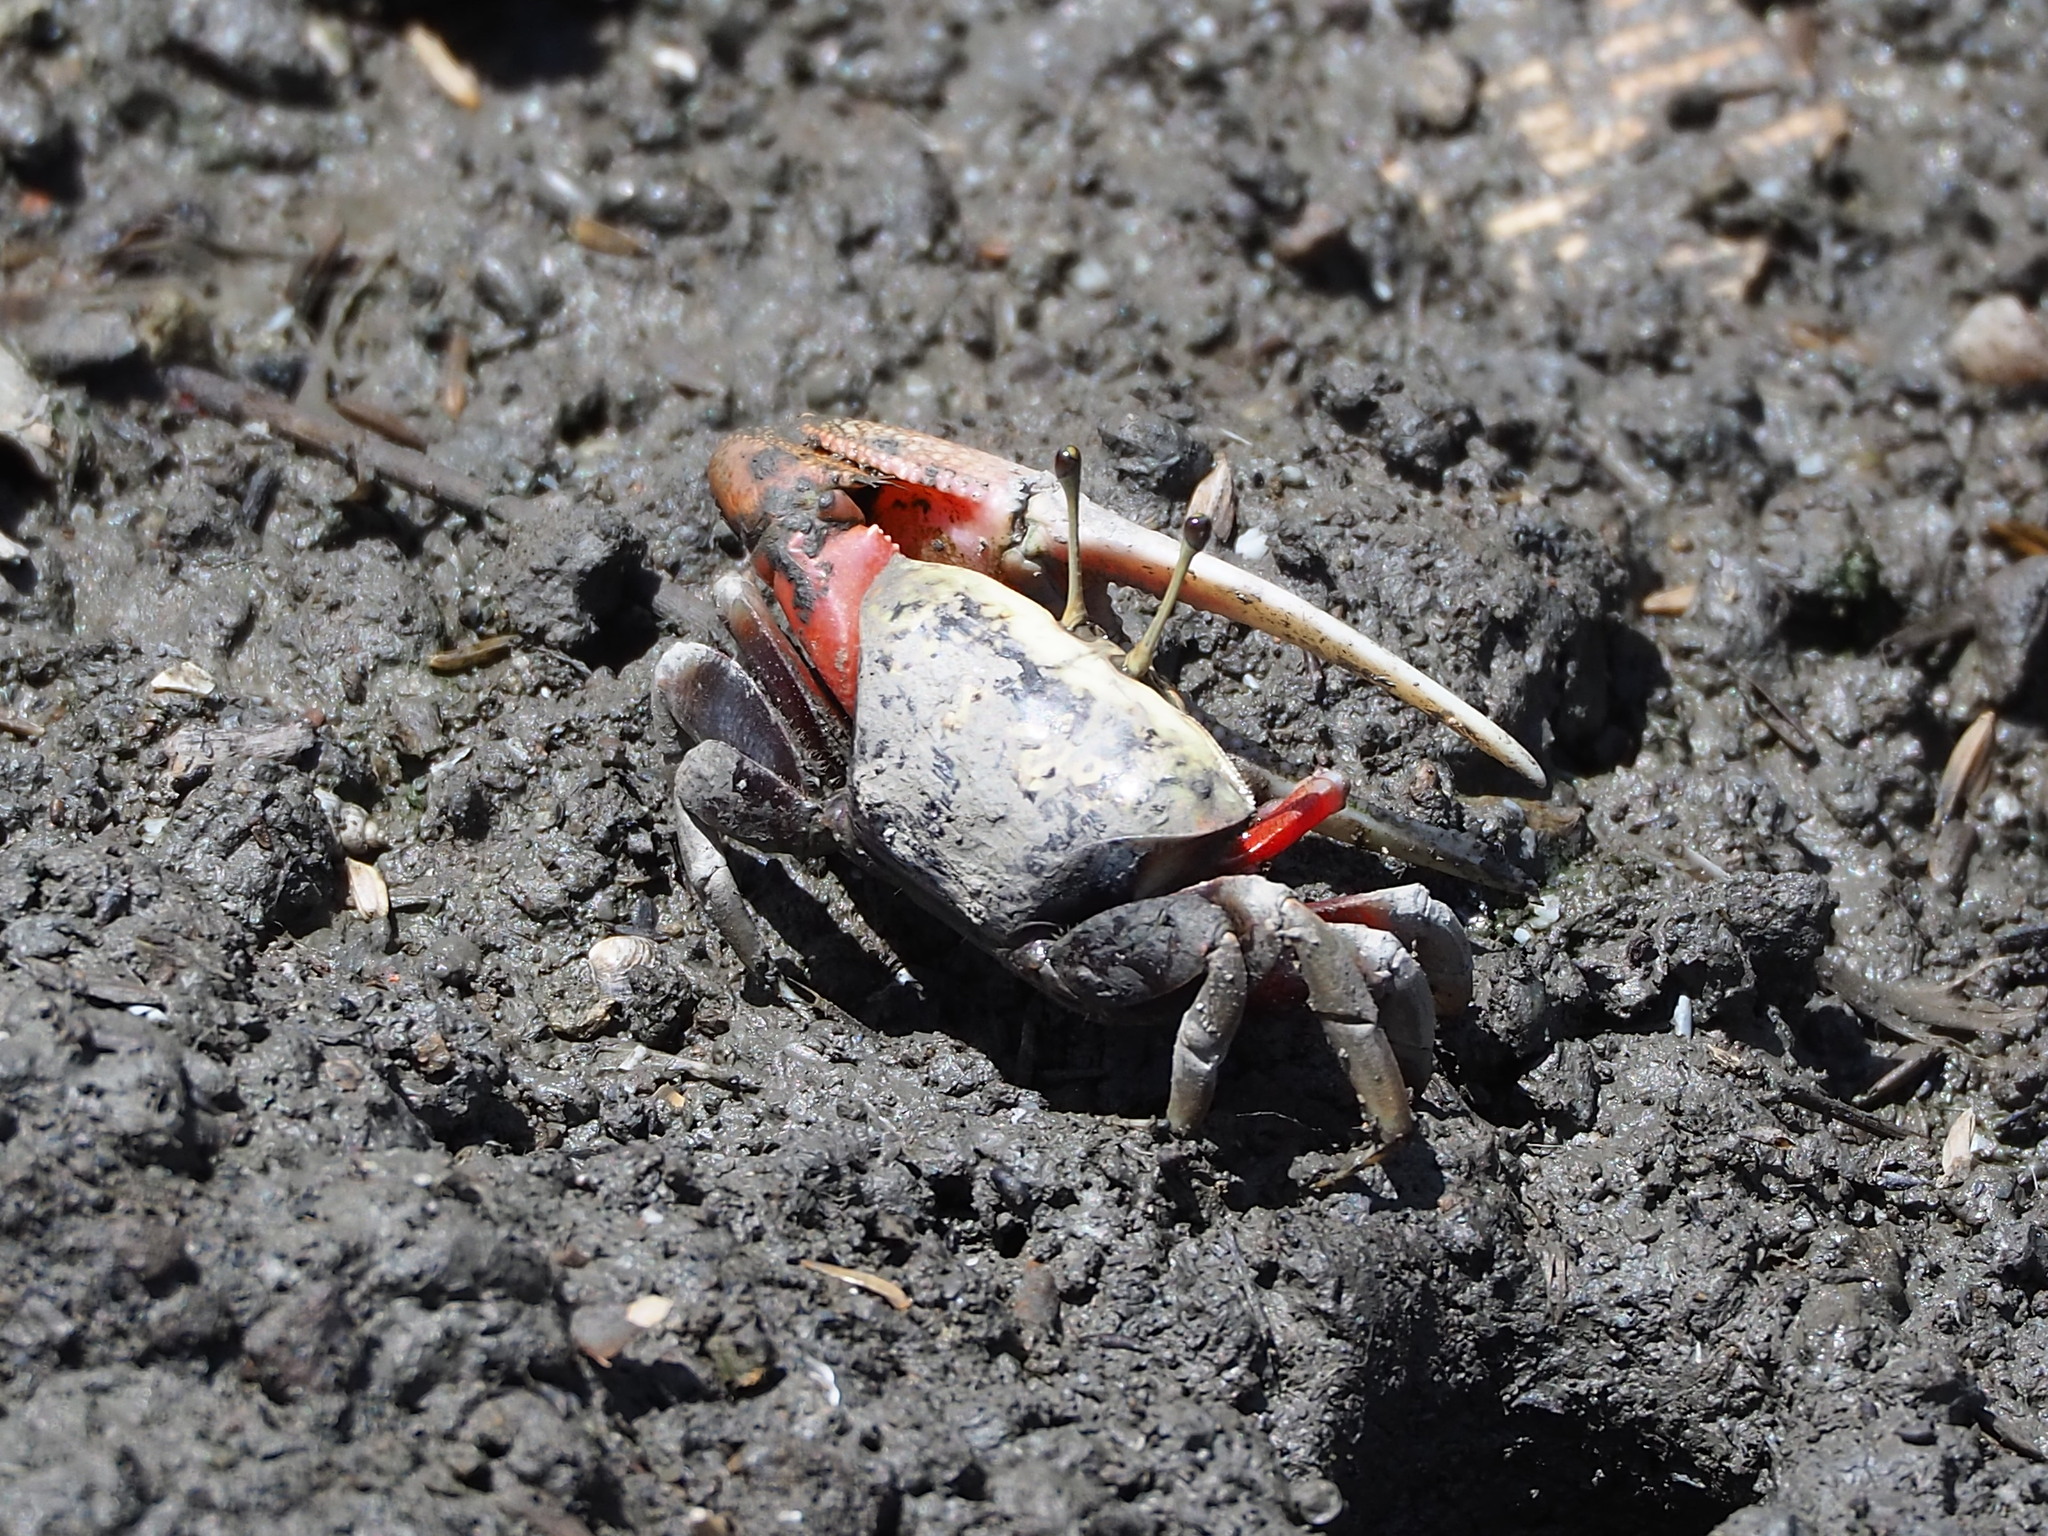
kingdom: Animalia
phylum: Arthropoda
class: Malacostraca
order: Decapoda
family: Ocypodidae
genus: Tubuca
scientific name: Tubuca arcuata
